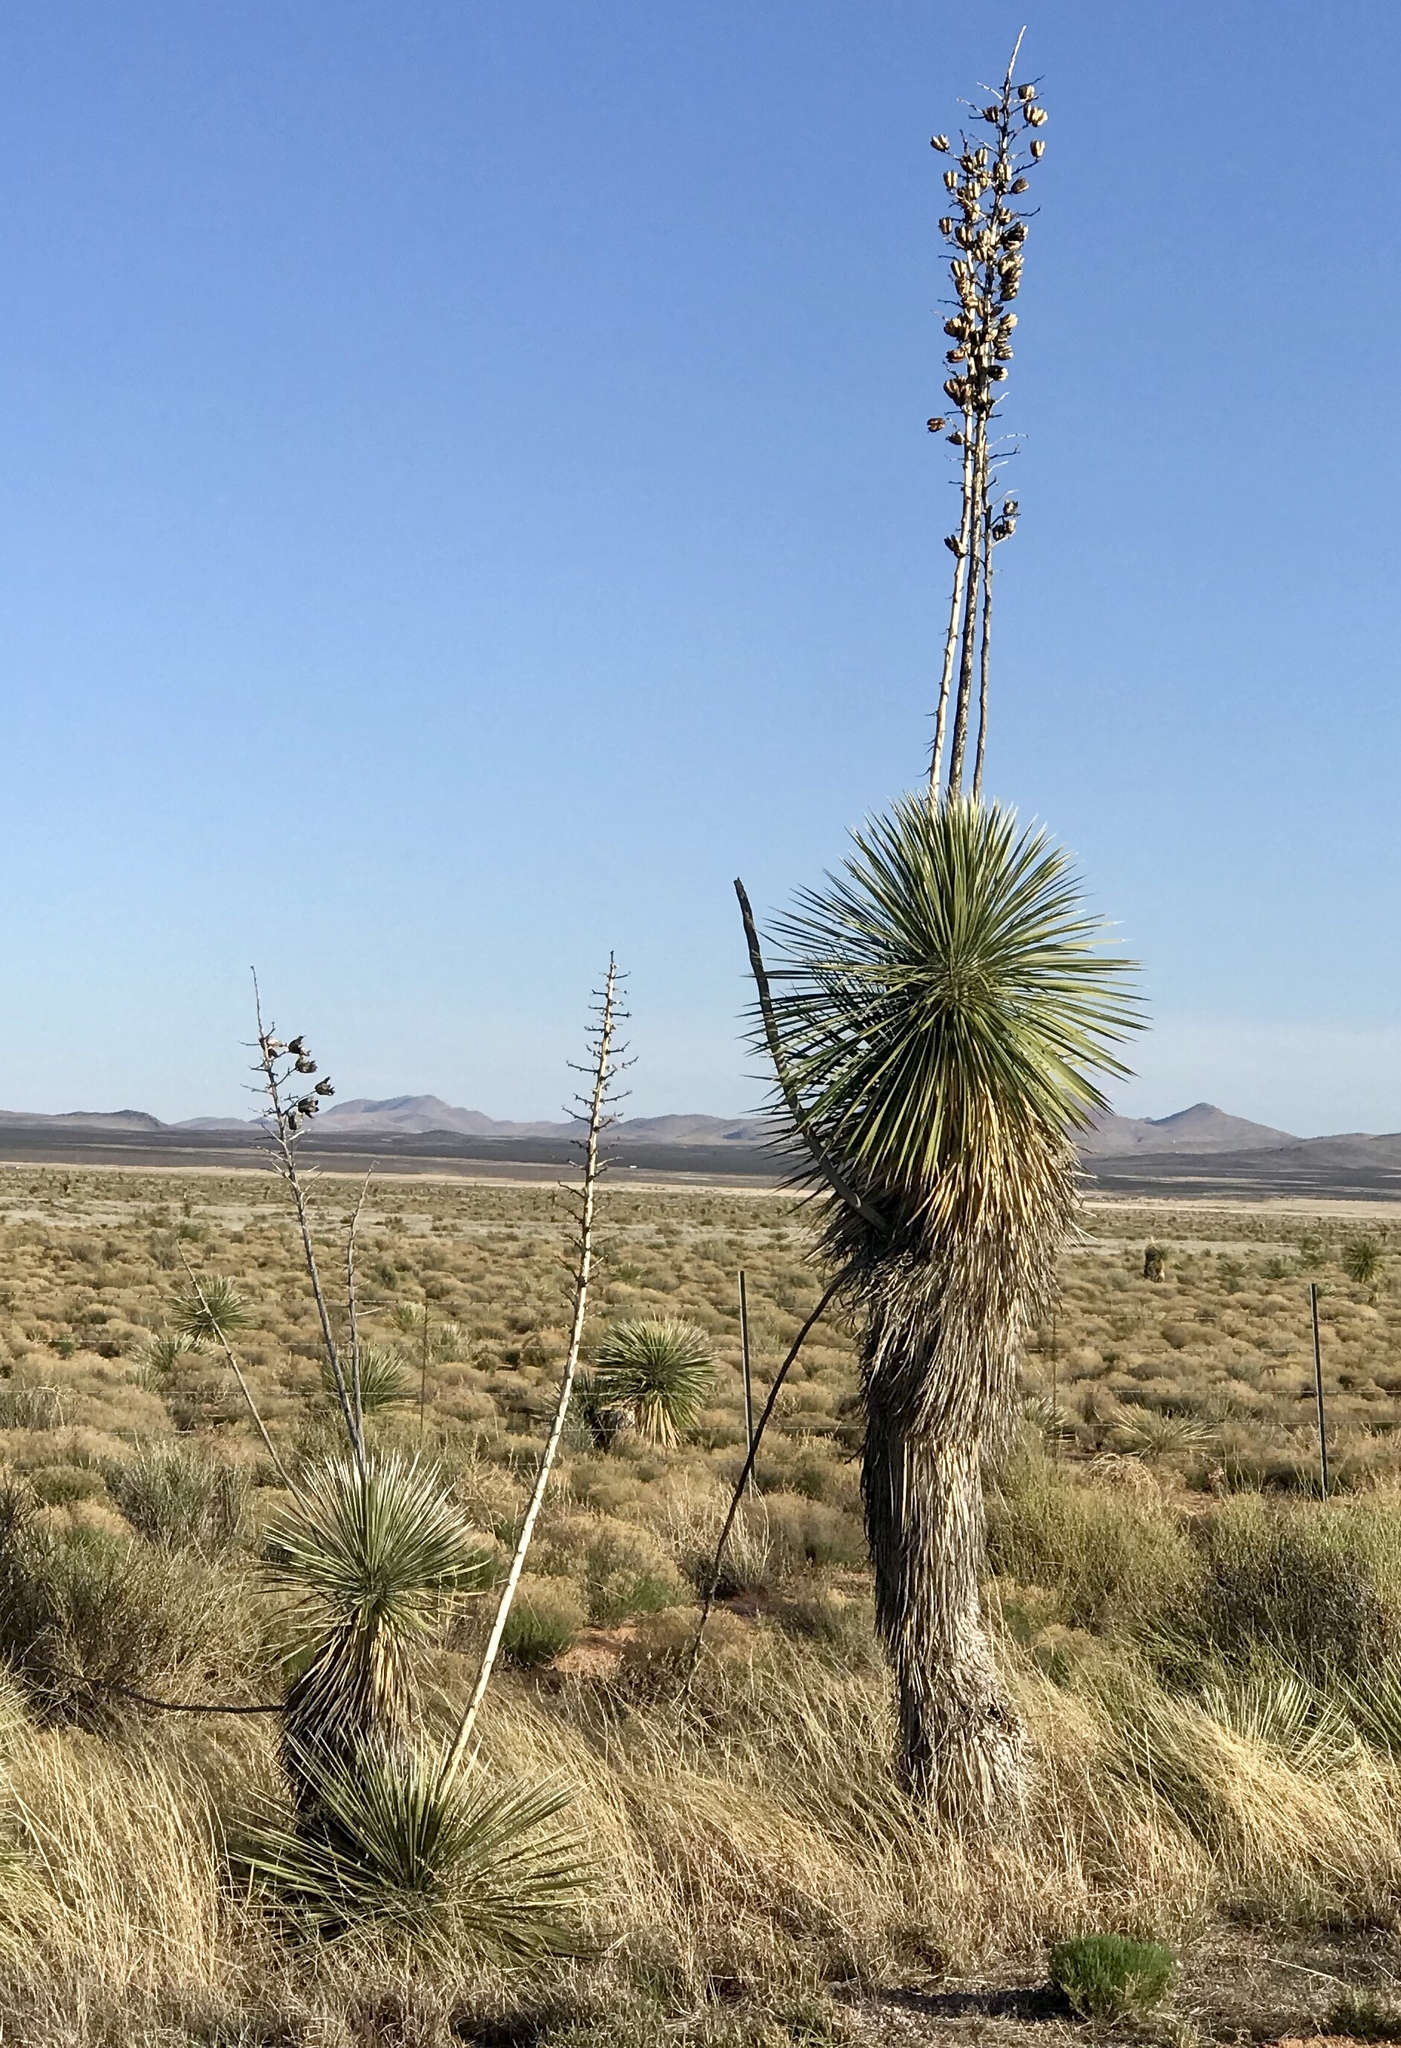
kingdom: Plantae
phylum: Tracheophyta
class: Liliopsida
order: Asparagales
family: Asparagaceae
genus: Yucca
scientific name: Yucca elata
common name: Palmella
